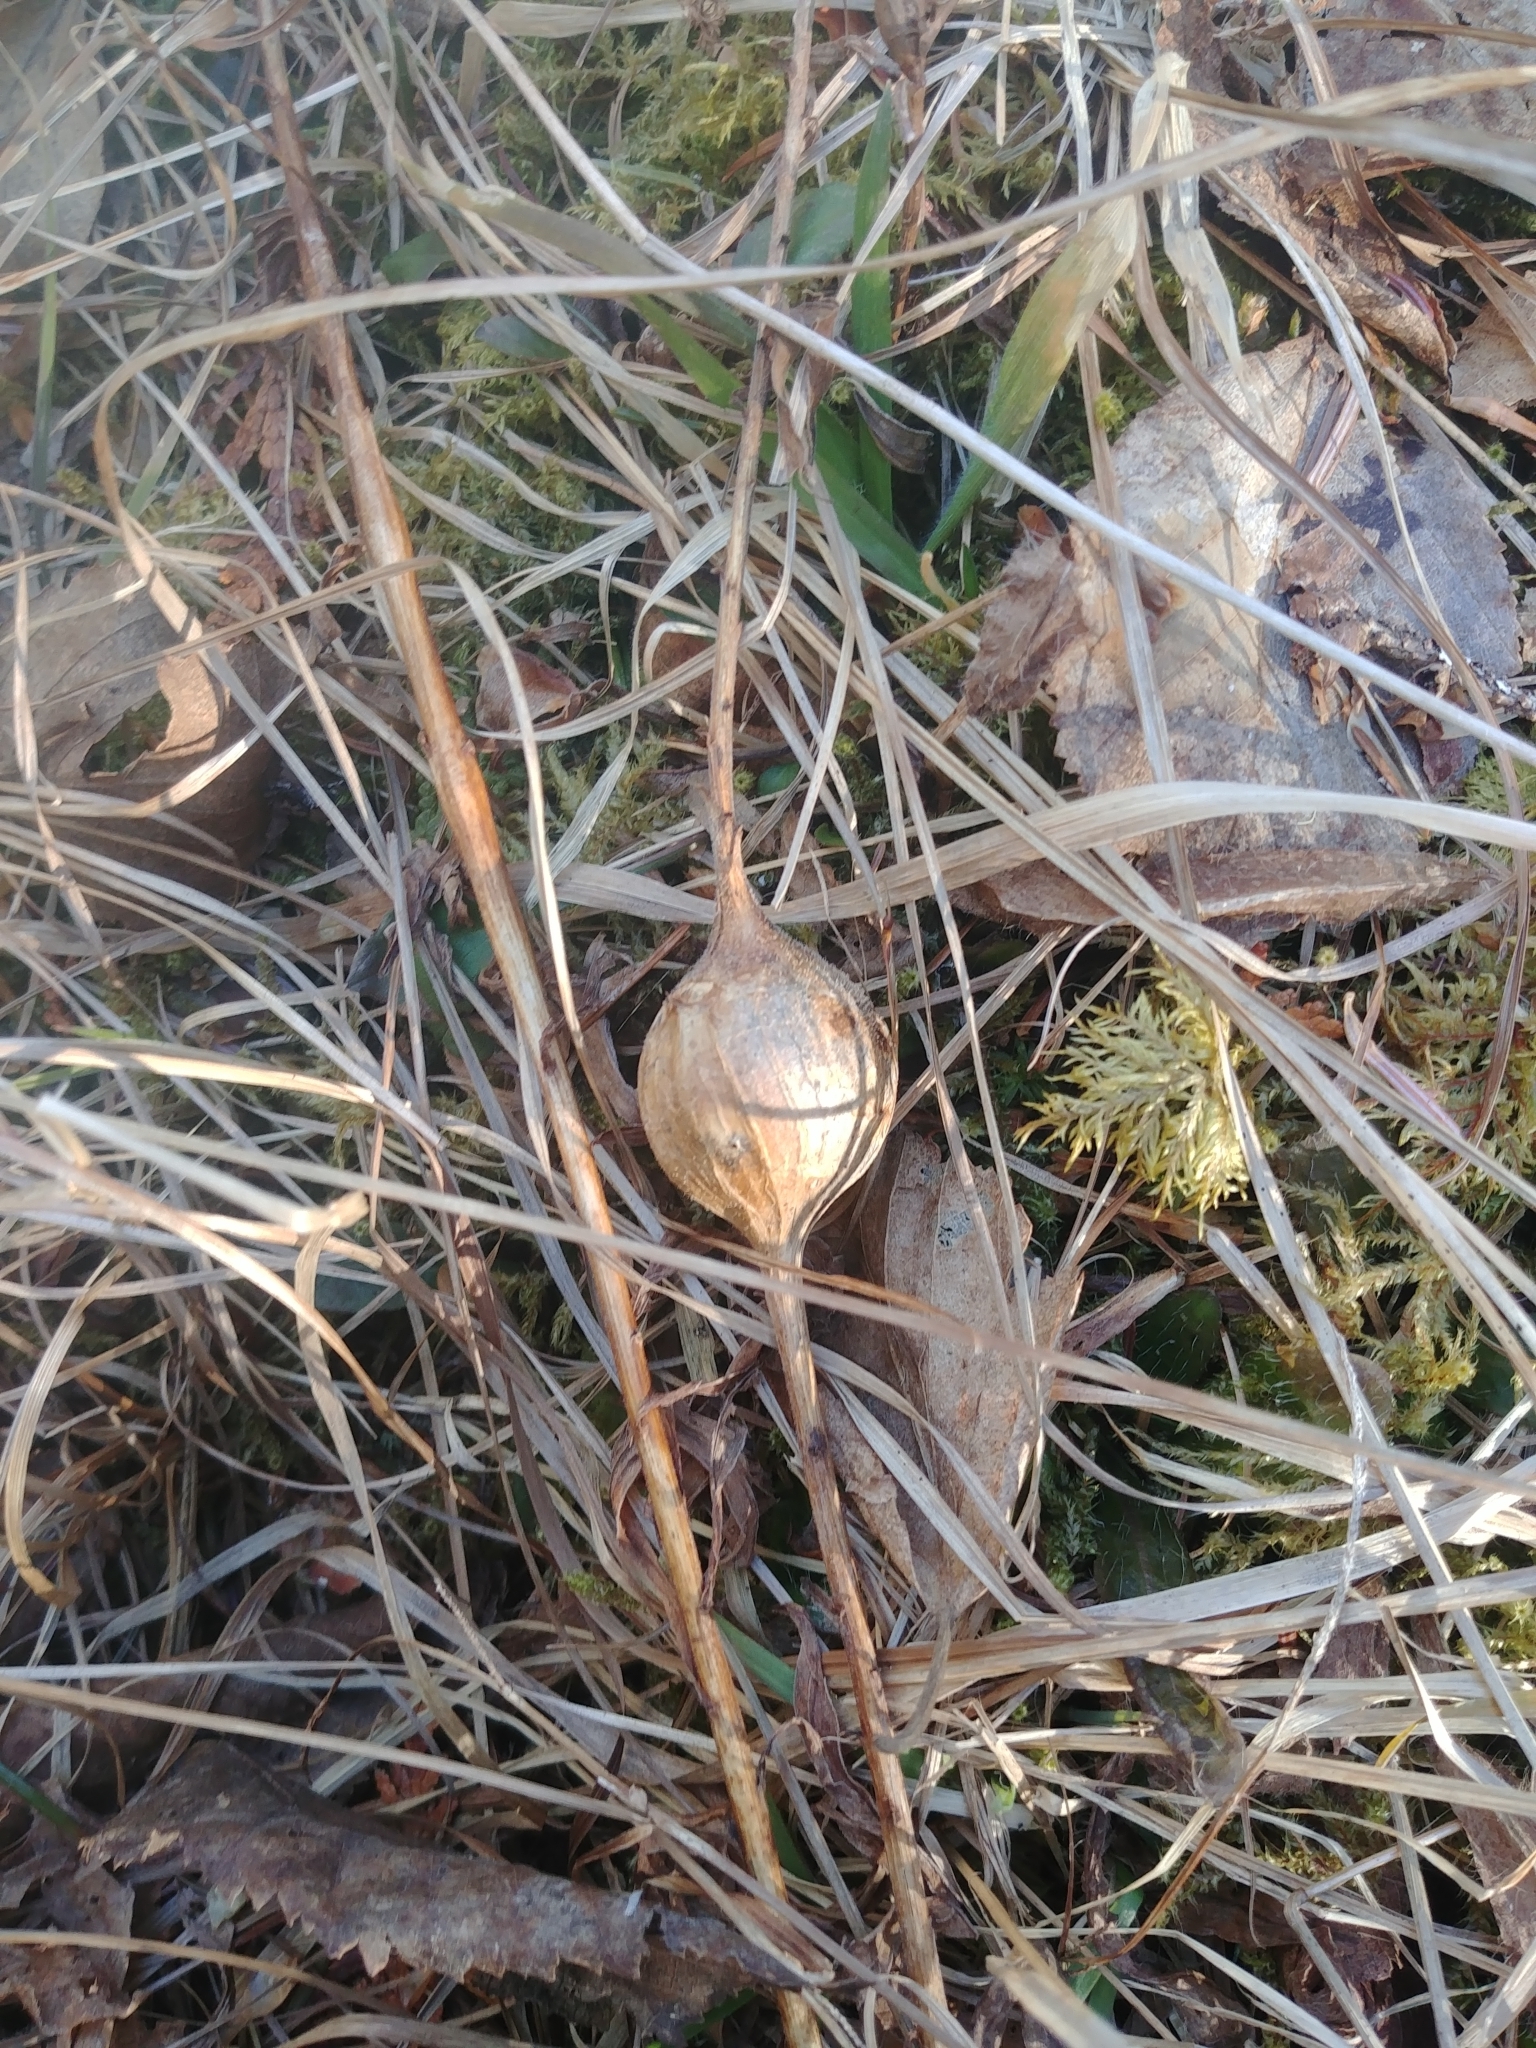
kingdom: Animalia
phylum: Arthropoda
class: Insecta
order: Diptera
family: Tephritidae
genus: Eurosta
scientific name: Eurosta solidaginis
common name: Goldenrod gall fly
